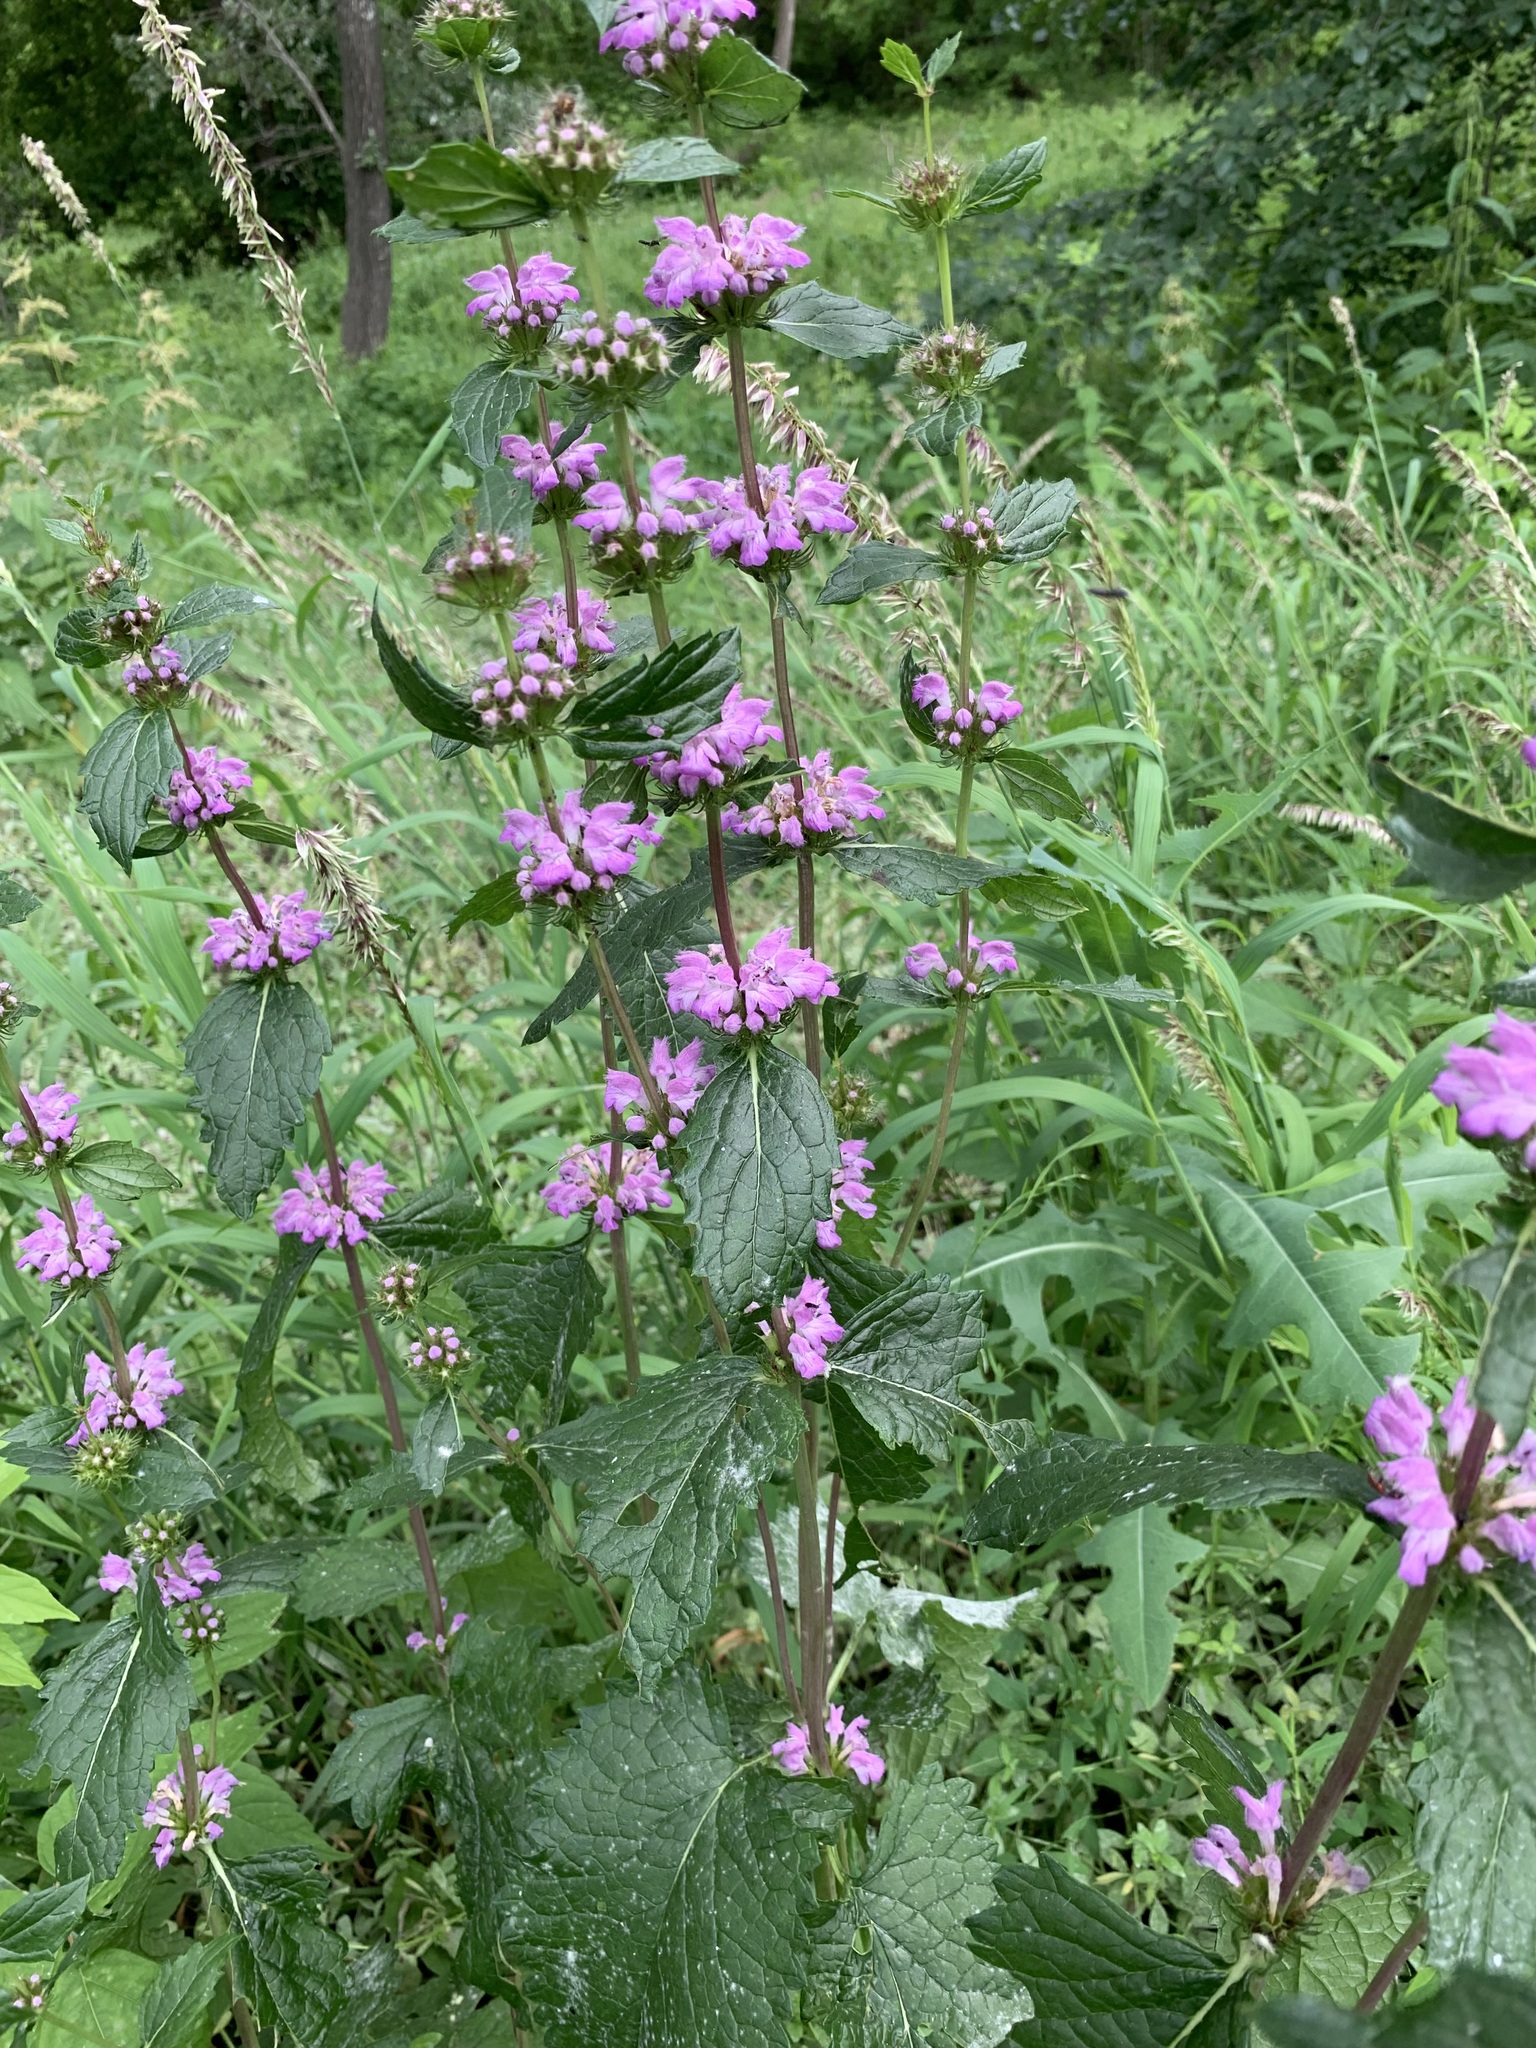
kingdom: Plantae
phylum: Tracheophyta
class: Magnoliopsida
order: Lamiales
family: Lamiaceae
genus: Phlomoides
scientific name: Phlomoides tuberosa
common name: Tuberous jerusalem sage
